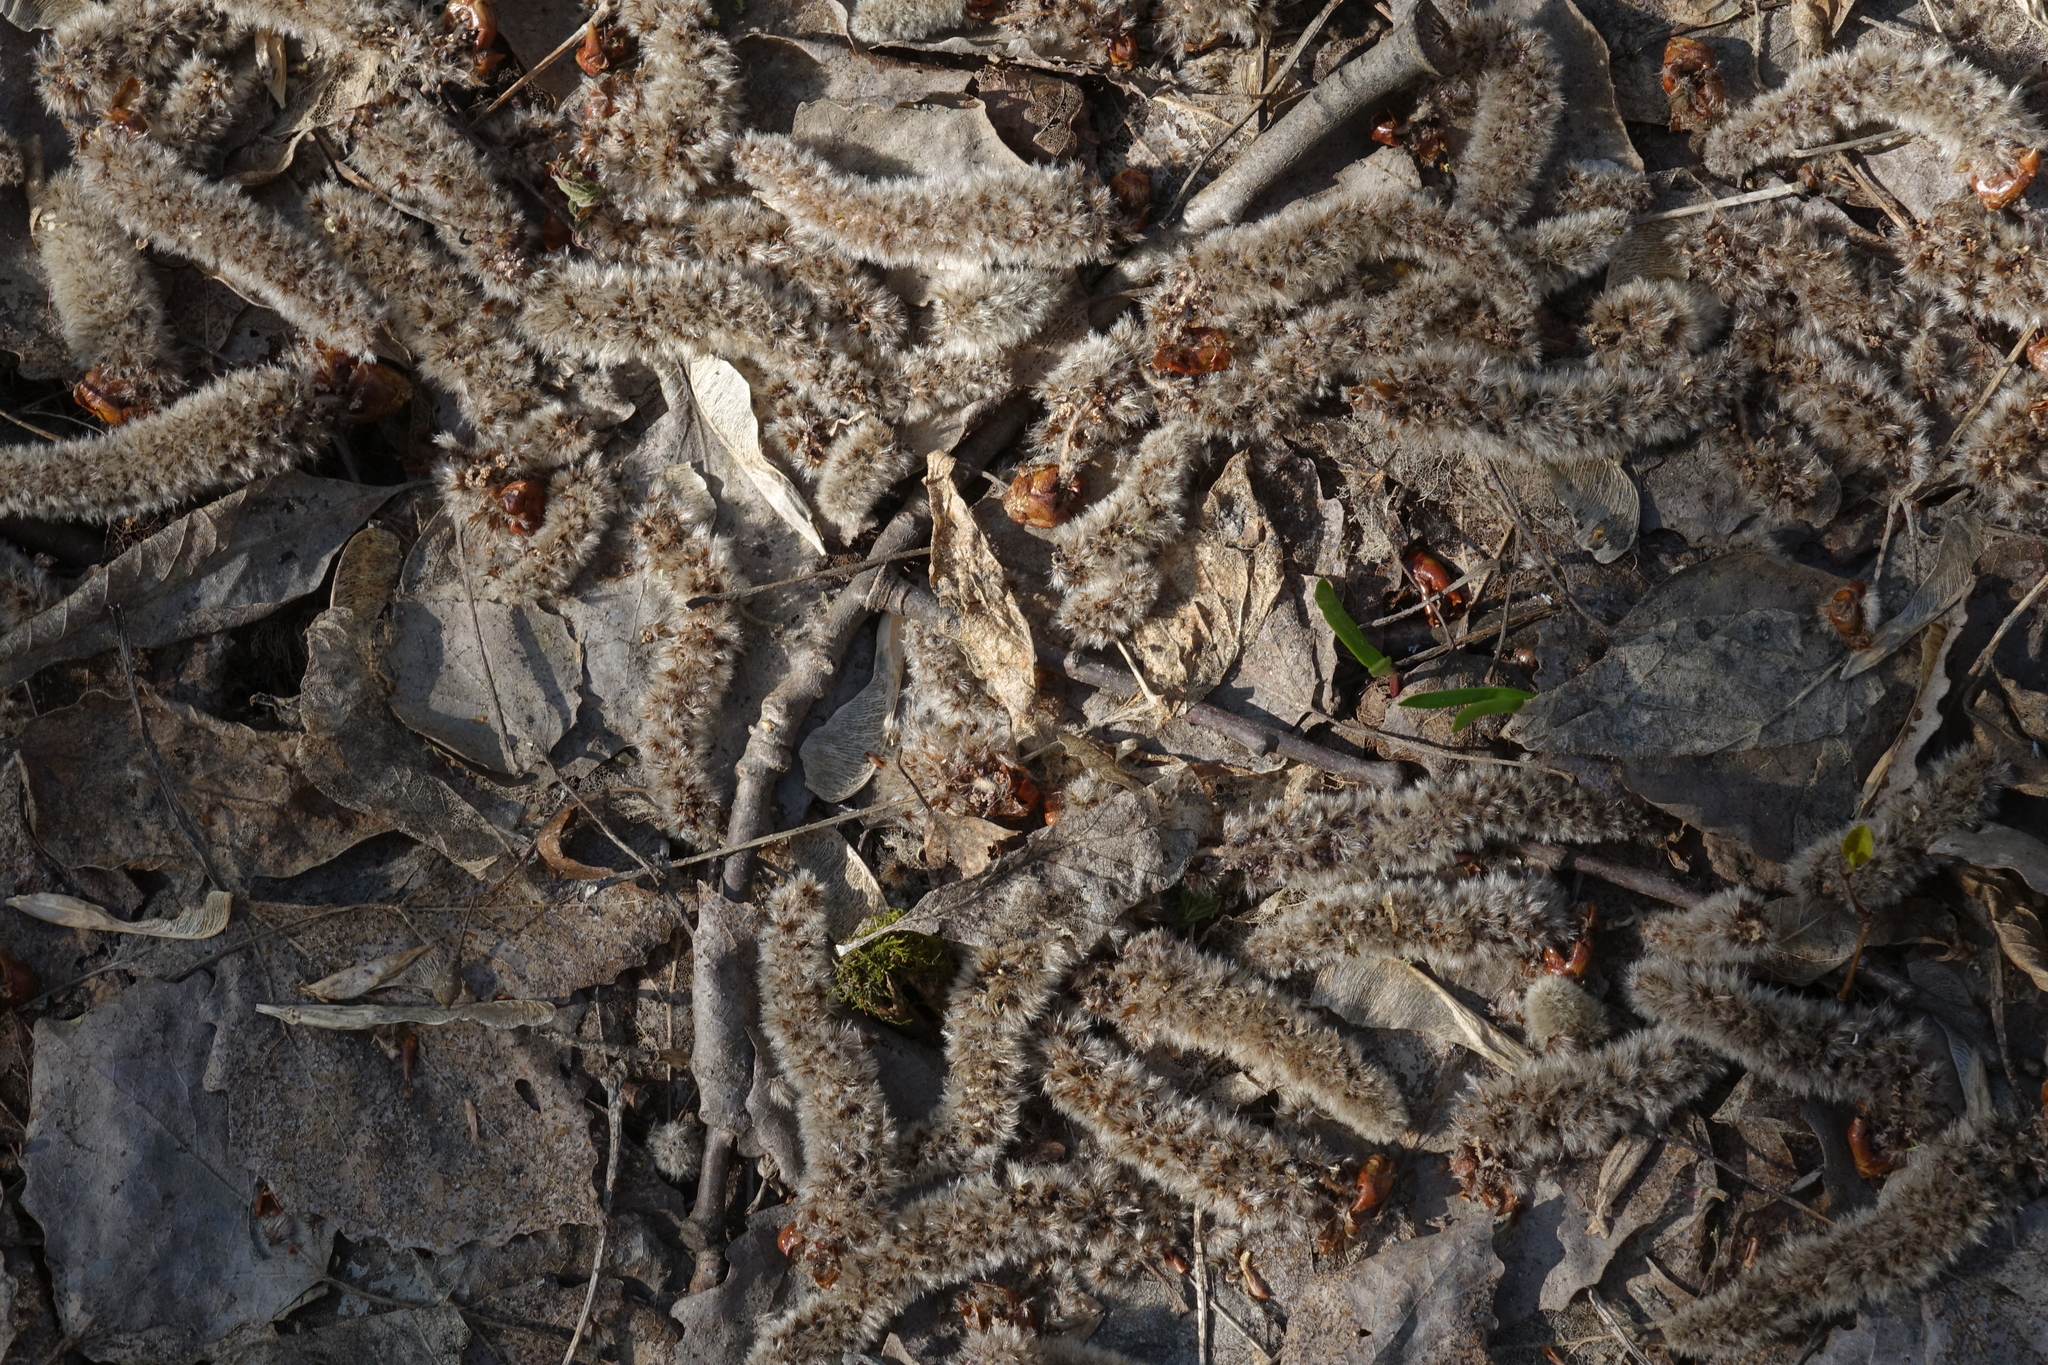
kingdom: Plantae
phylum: Tracheophyta
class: Magnoliopsida
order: Malpighiales
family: Salicaceae
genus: Populus
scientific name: Populus tremula
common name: European aspen
